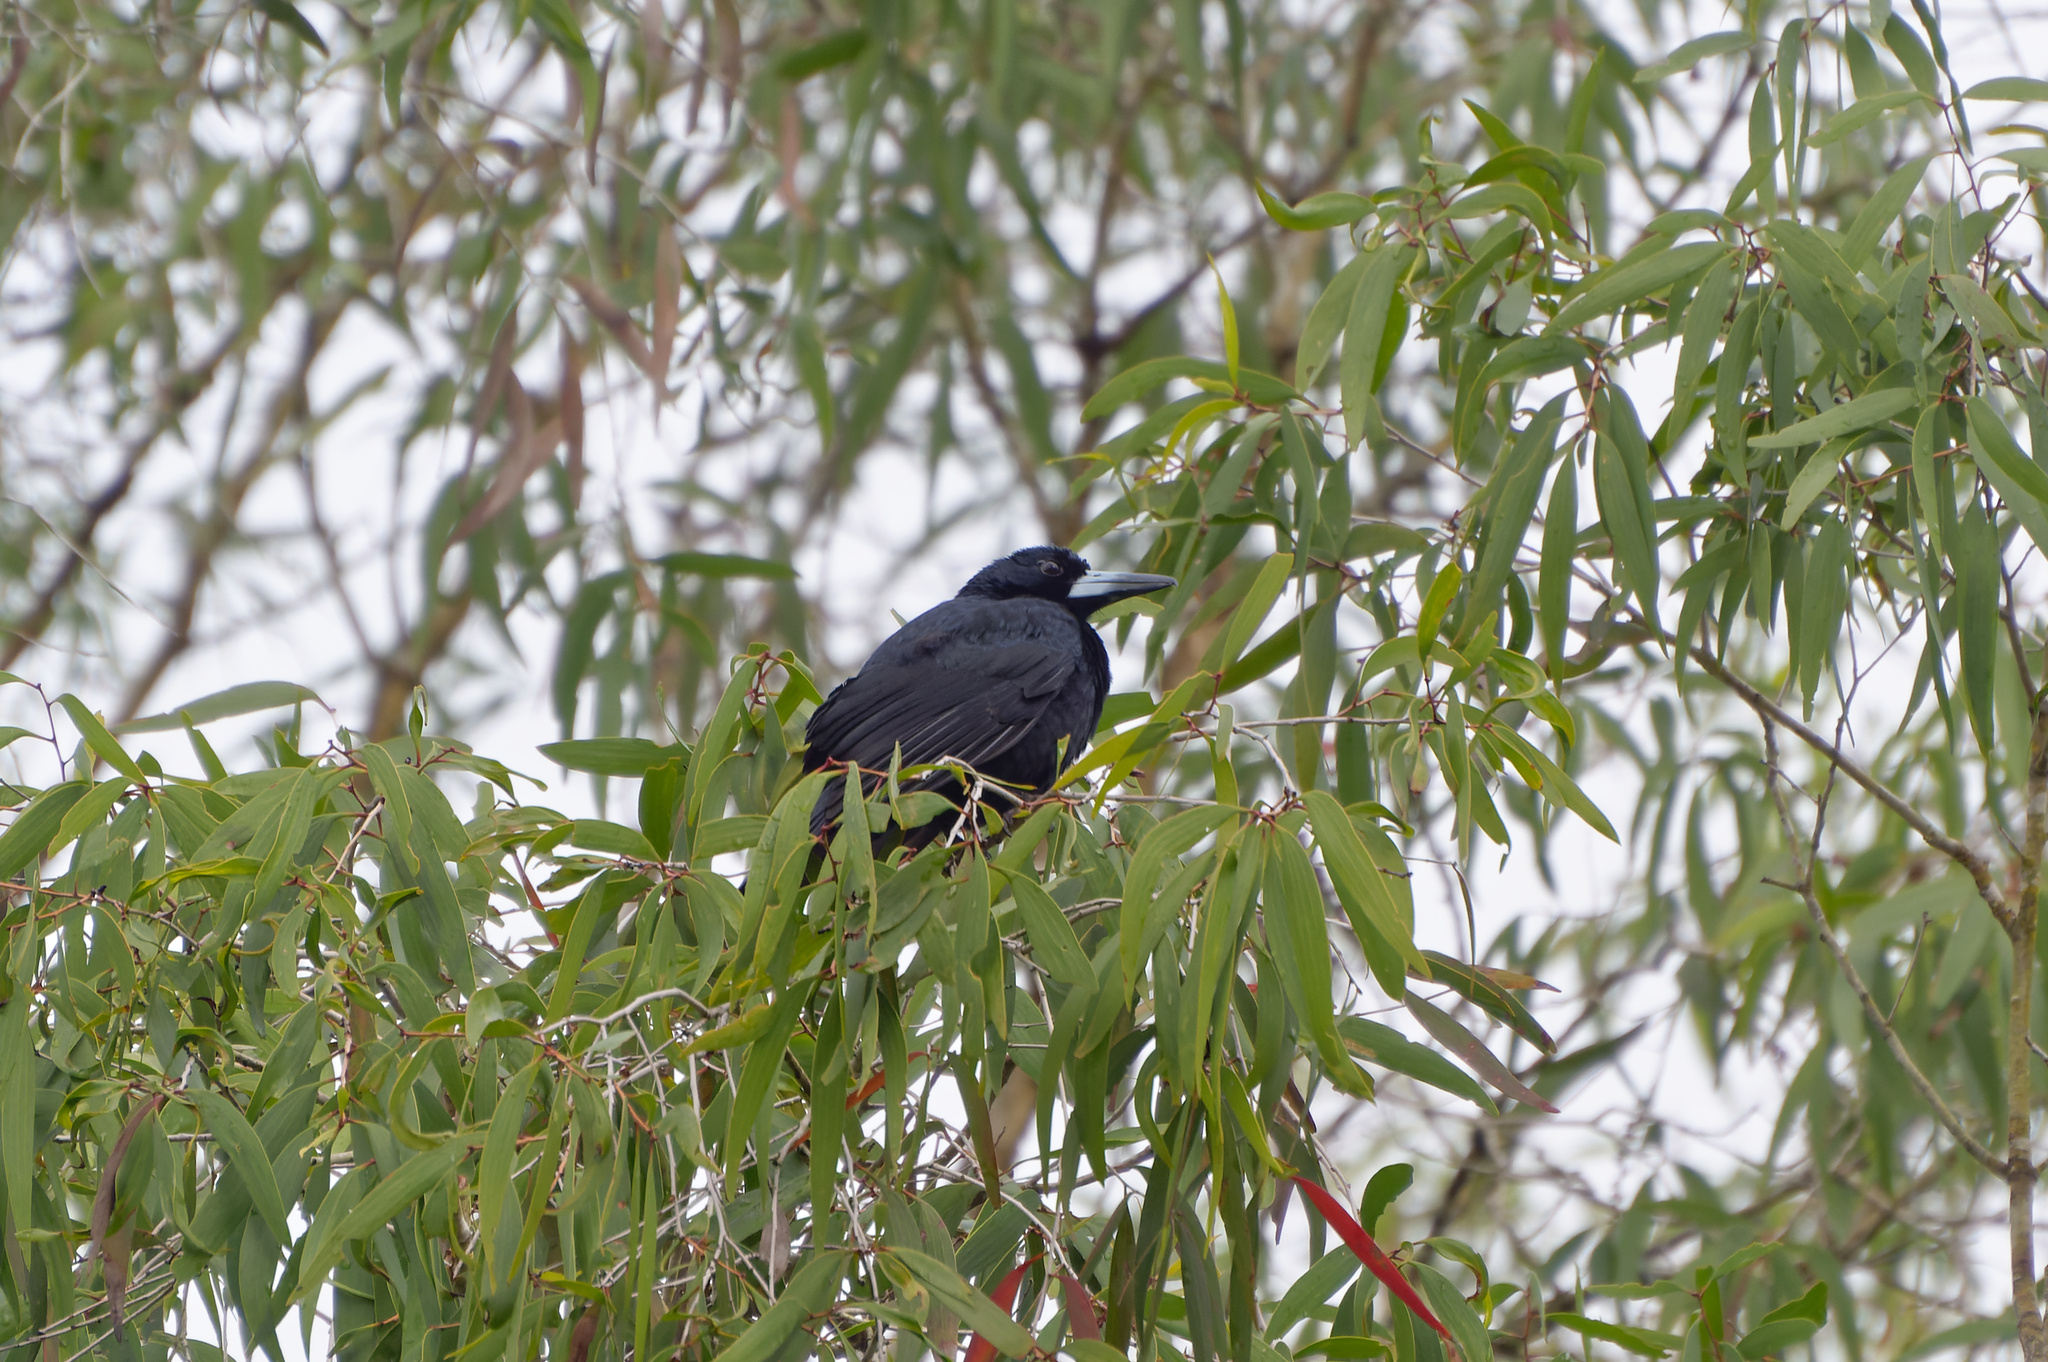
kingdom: Animalia
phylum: Chordata
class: Aves
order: Passeriformes
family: Artamidae
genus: Melloria
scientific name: Melloria quoyi
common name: Black butcherbird
